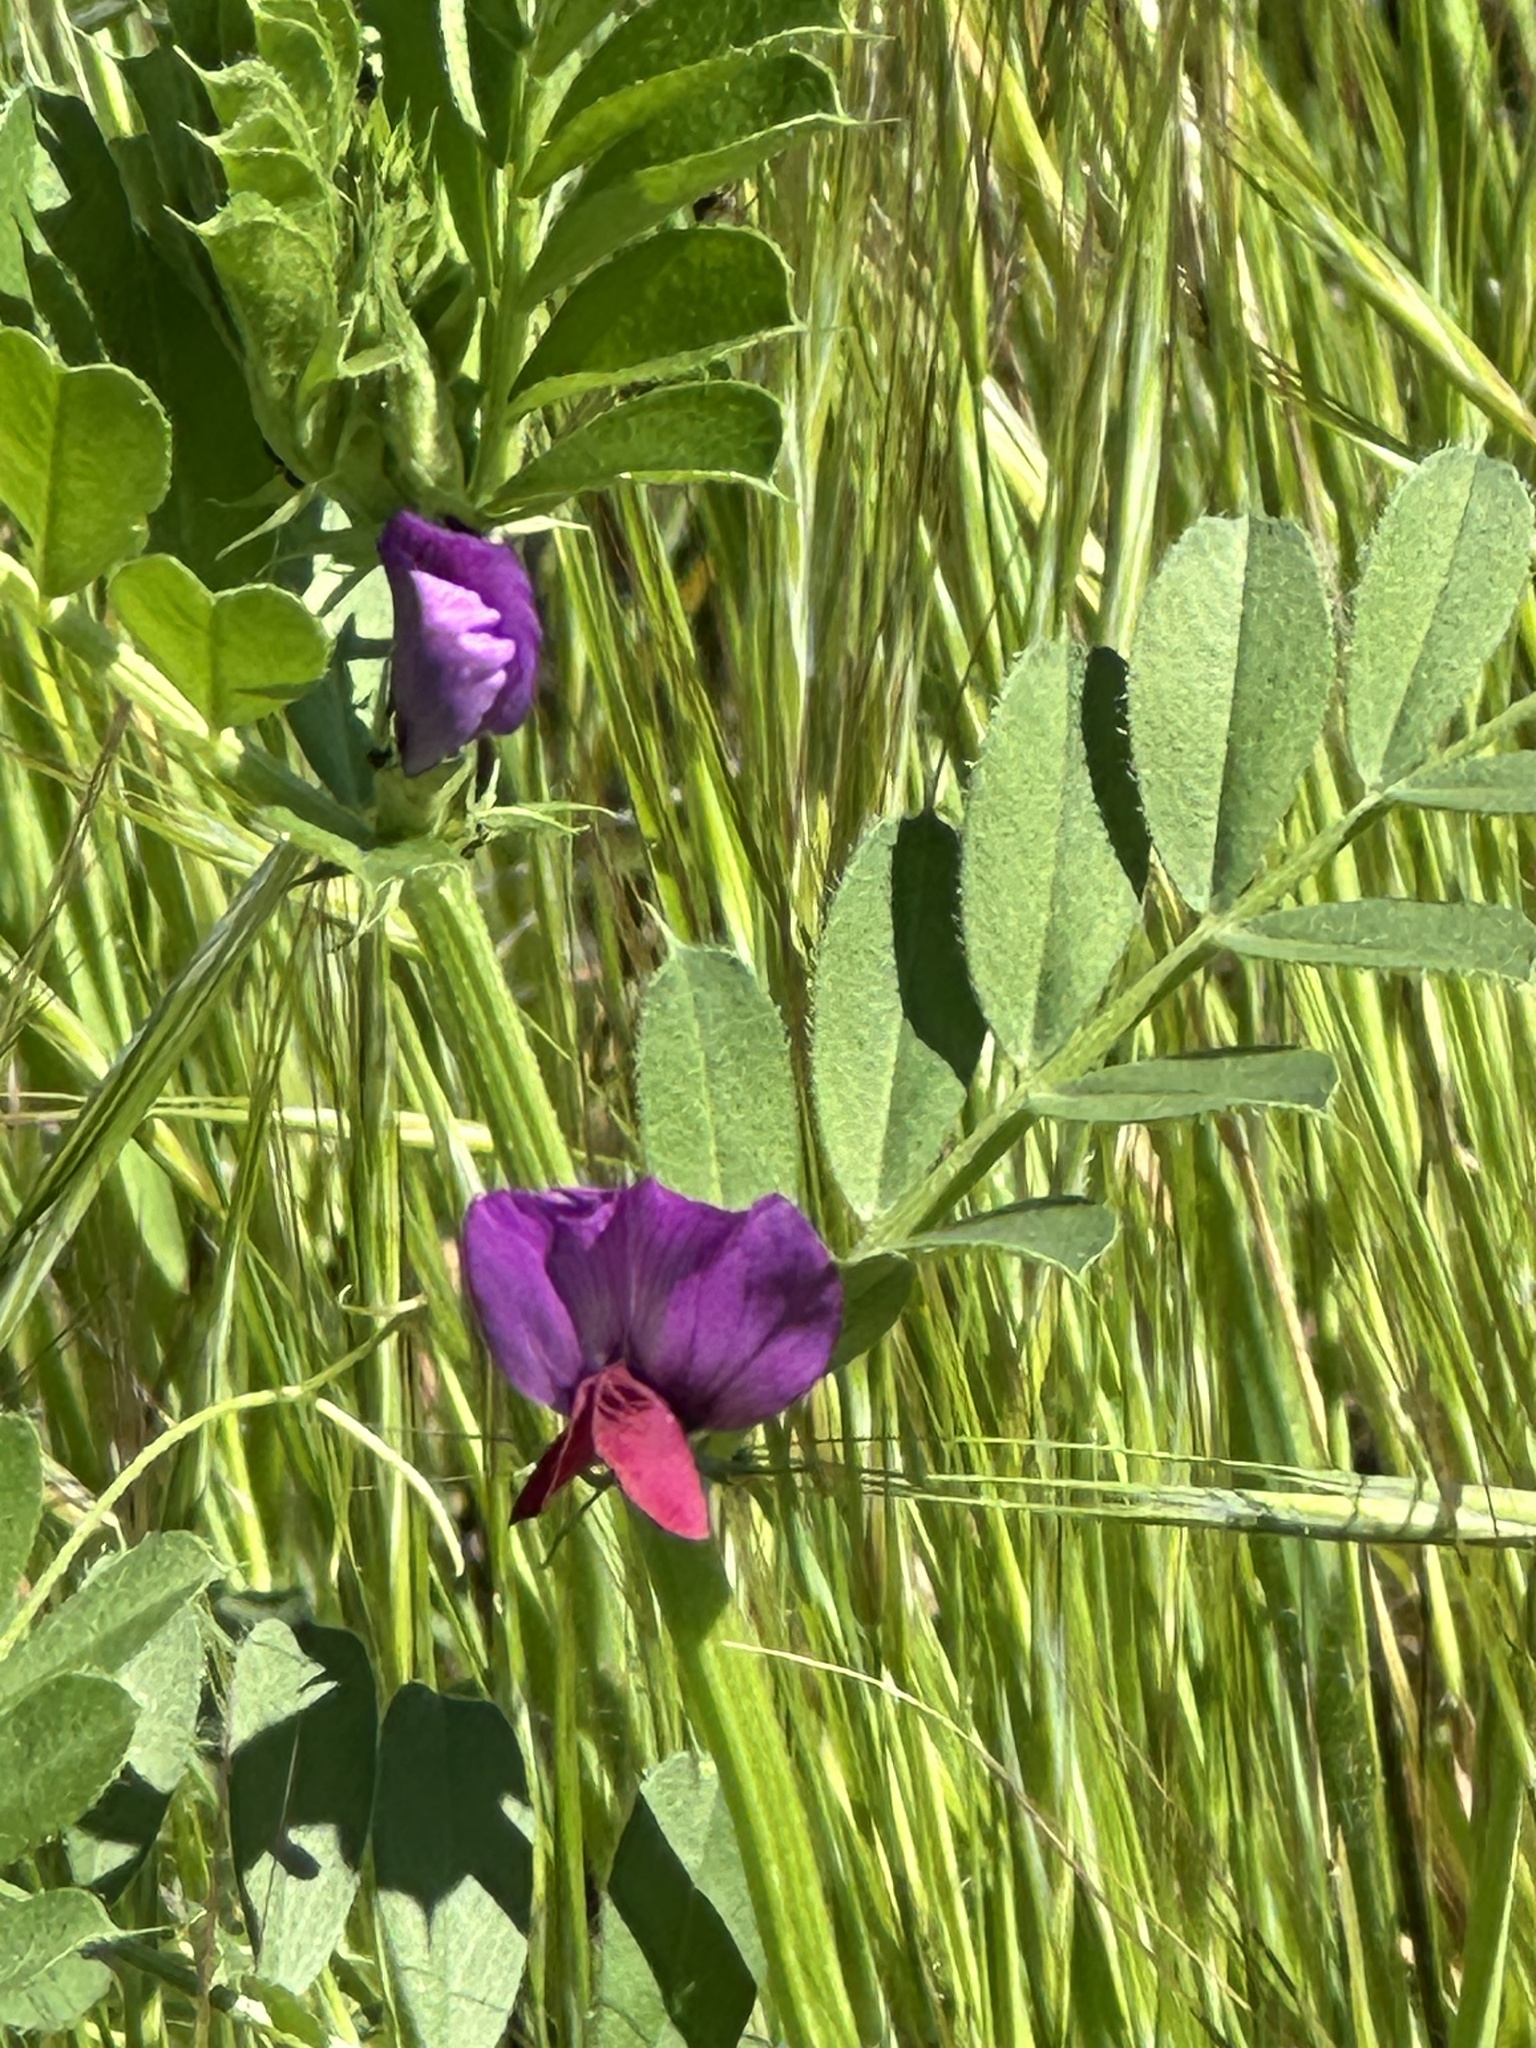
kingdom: Plantae
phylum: Tracheophyta
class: Magnoliopsida
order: Fabales
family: Fabaceae
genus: Vicia
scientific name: Vicia sativa
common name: Garden vetch
